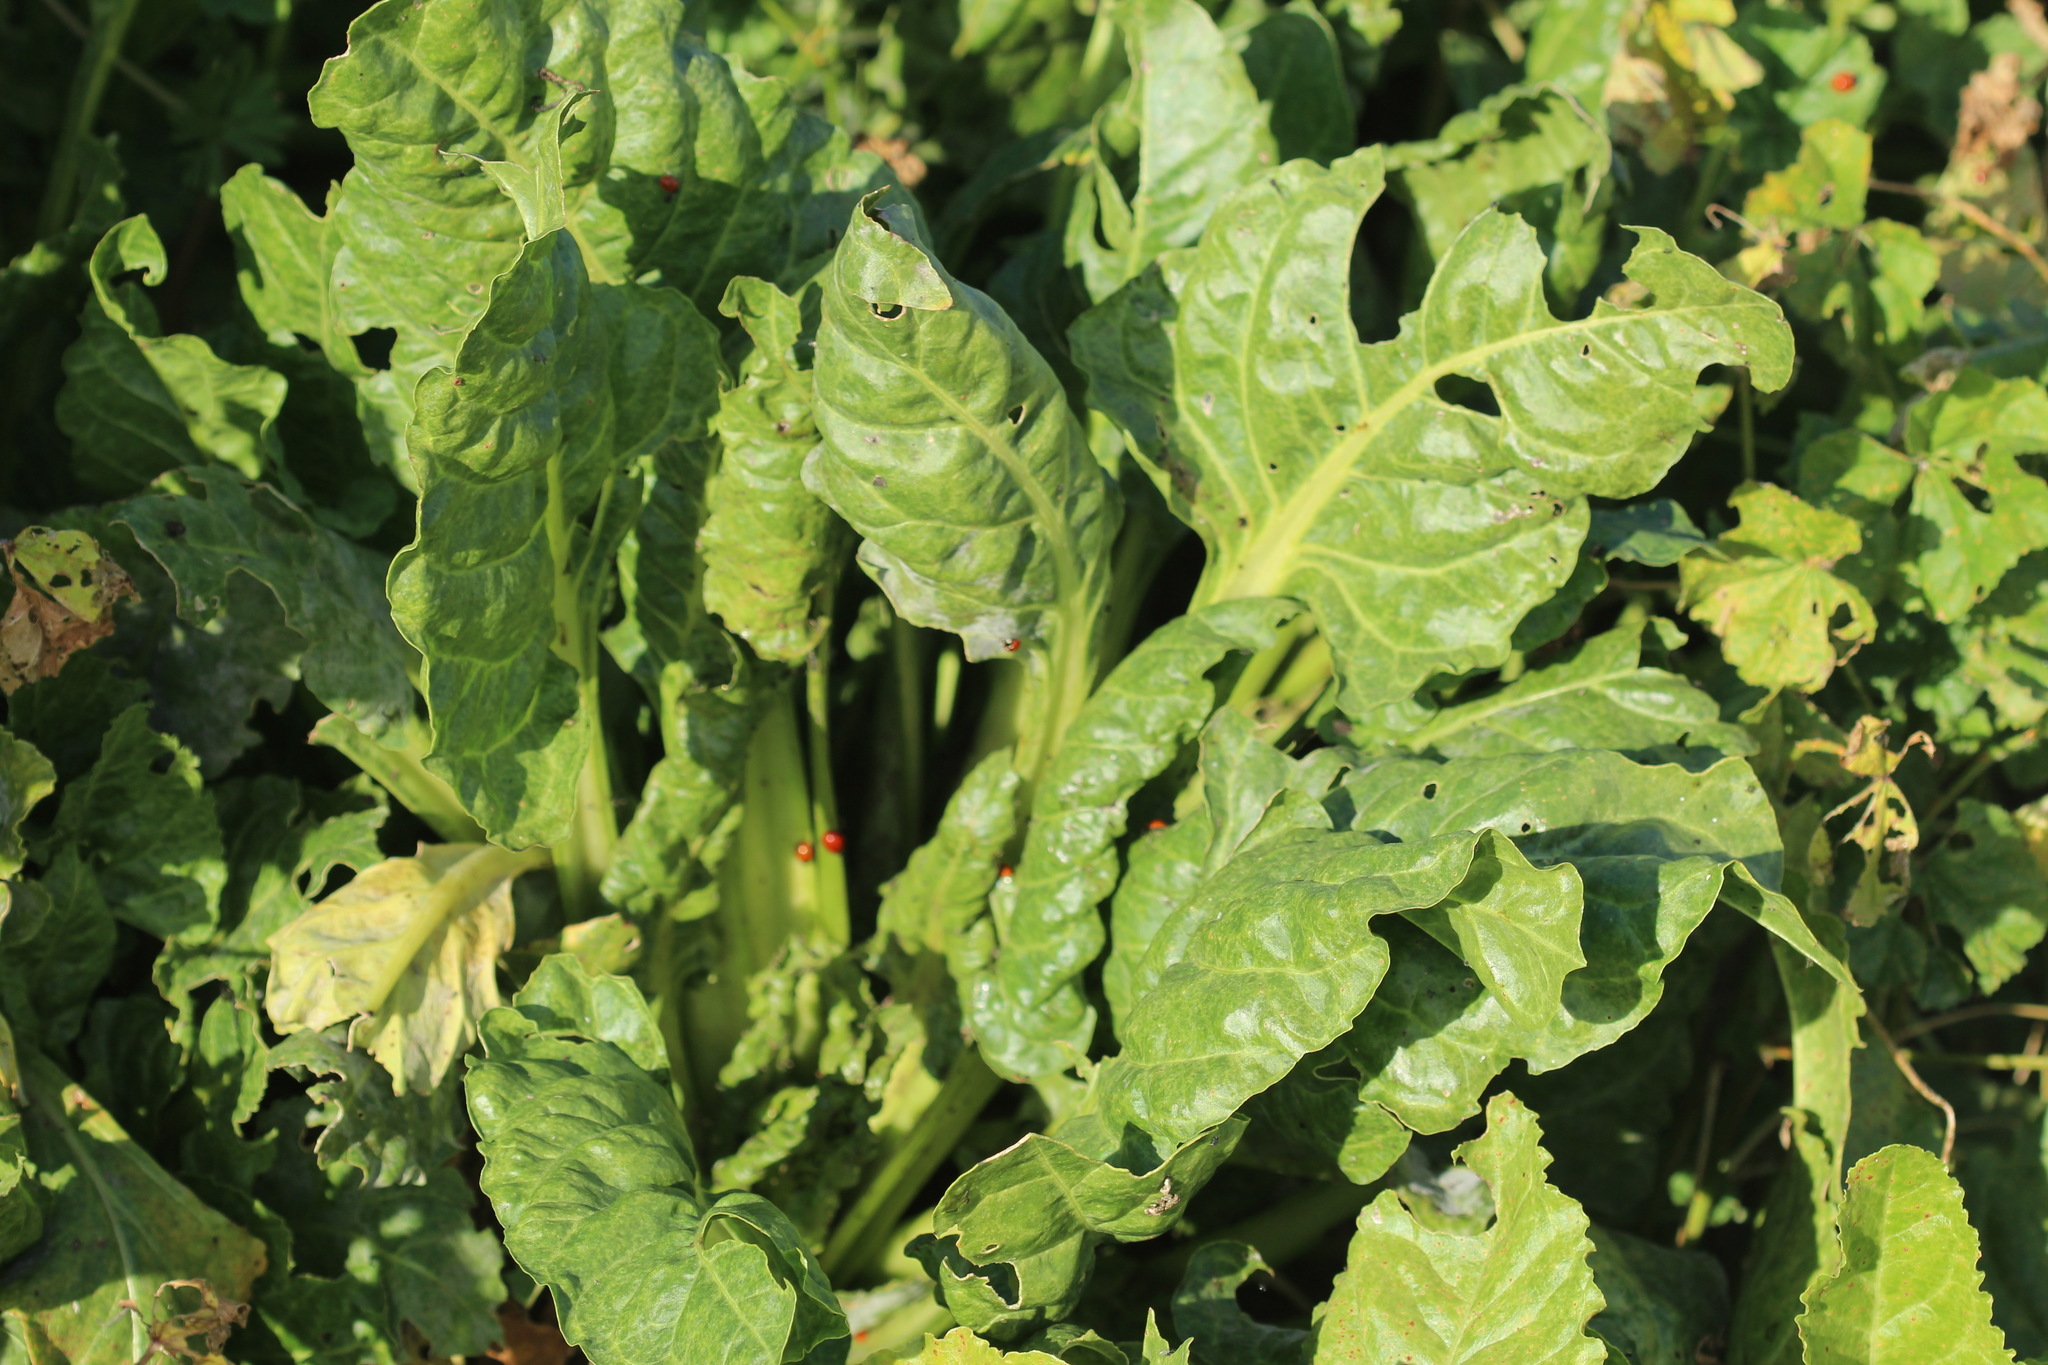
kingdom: Plantae
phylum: Tracheophyta
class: Magnoliopsida
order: Caryophyllales
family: Amaranthaceae
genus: Beta
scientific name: Beta vulgaris
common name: Beet
